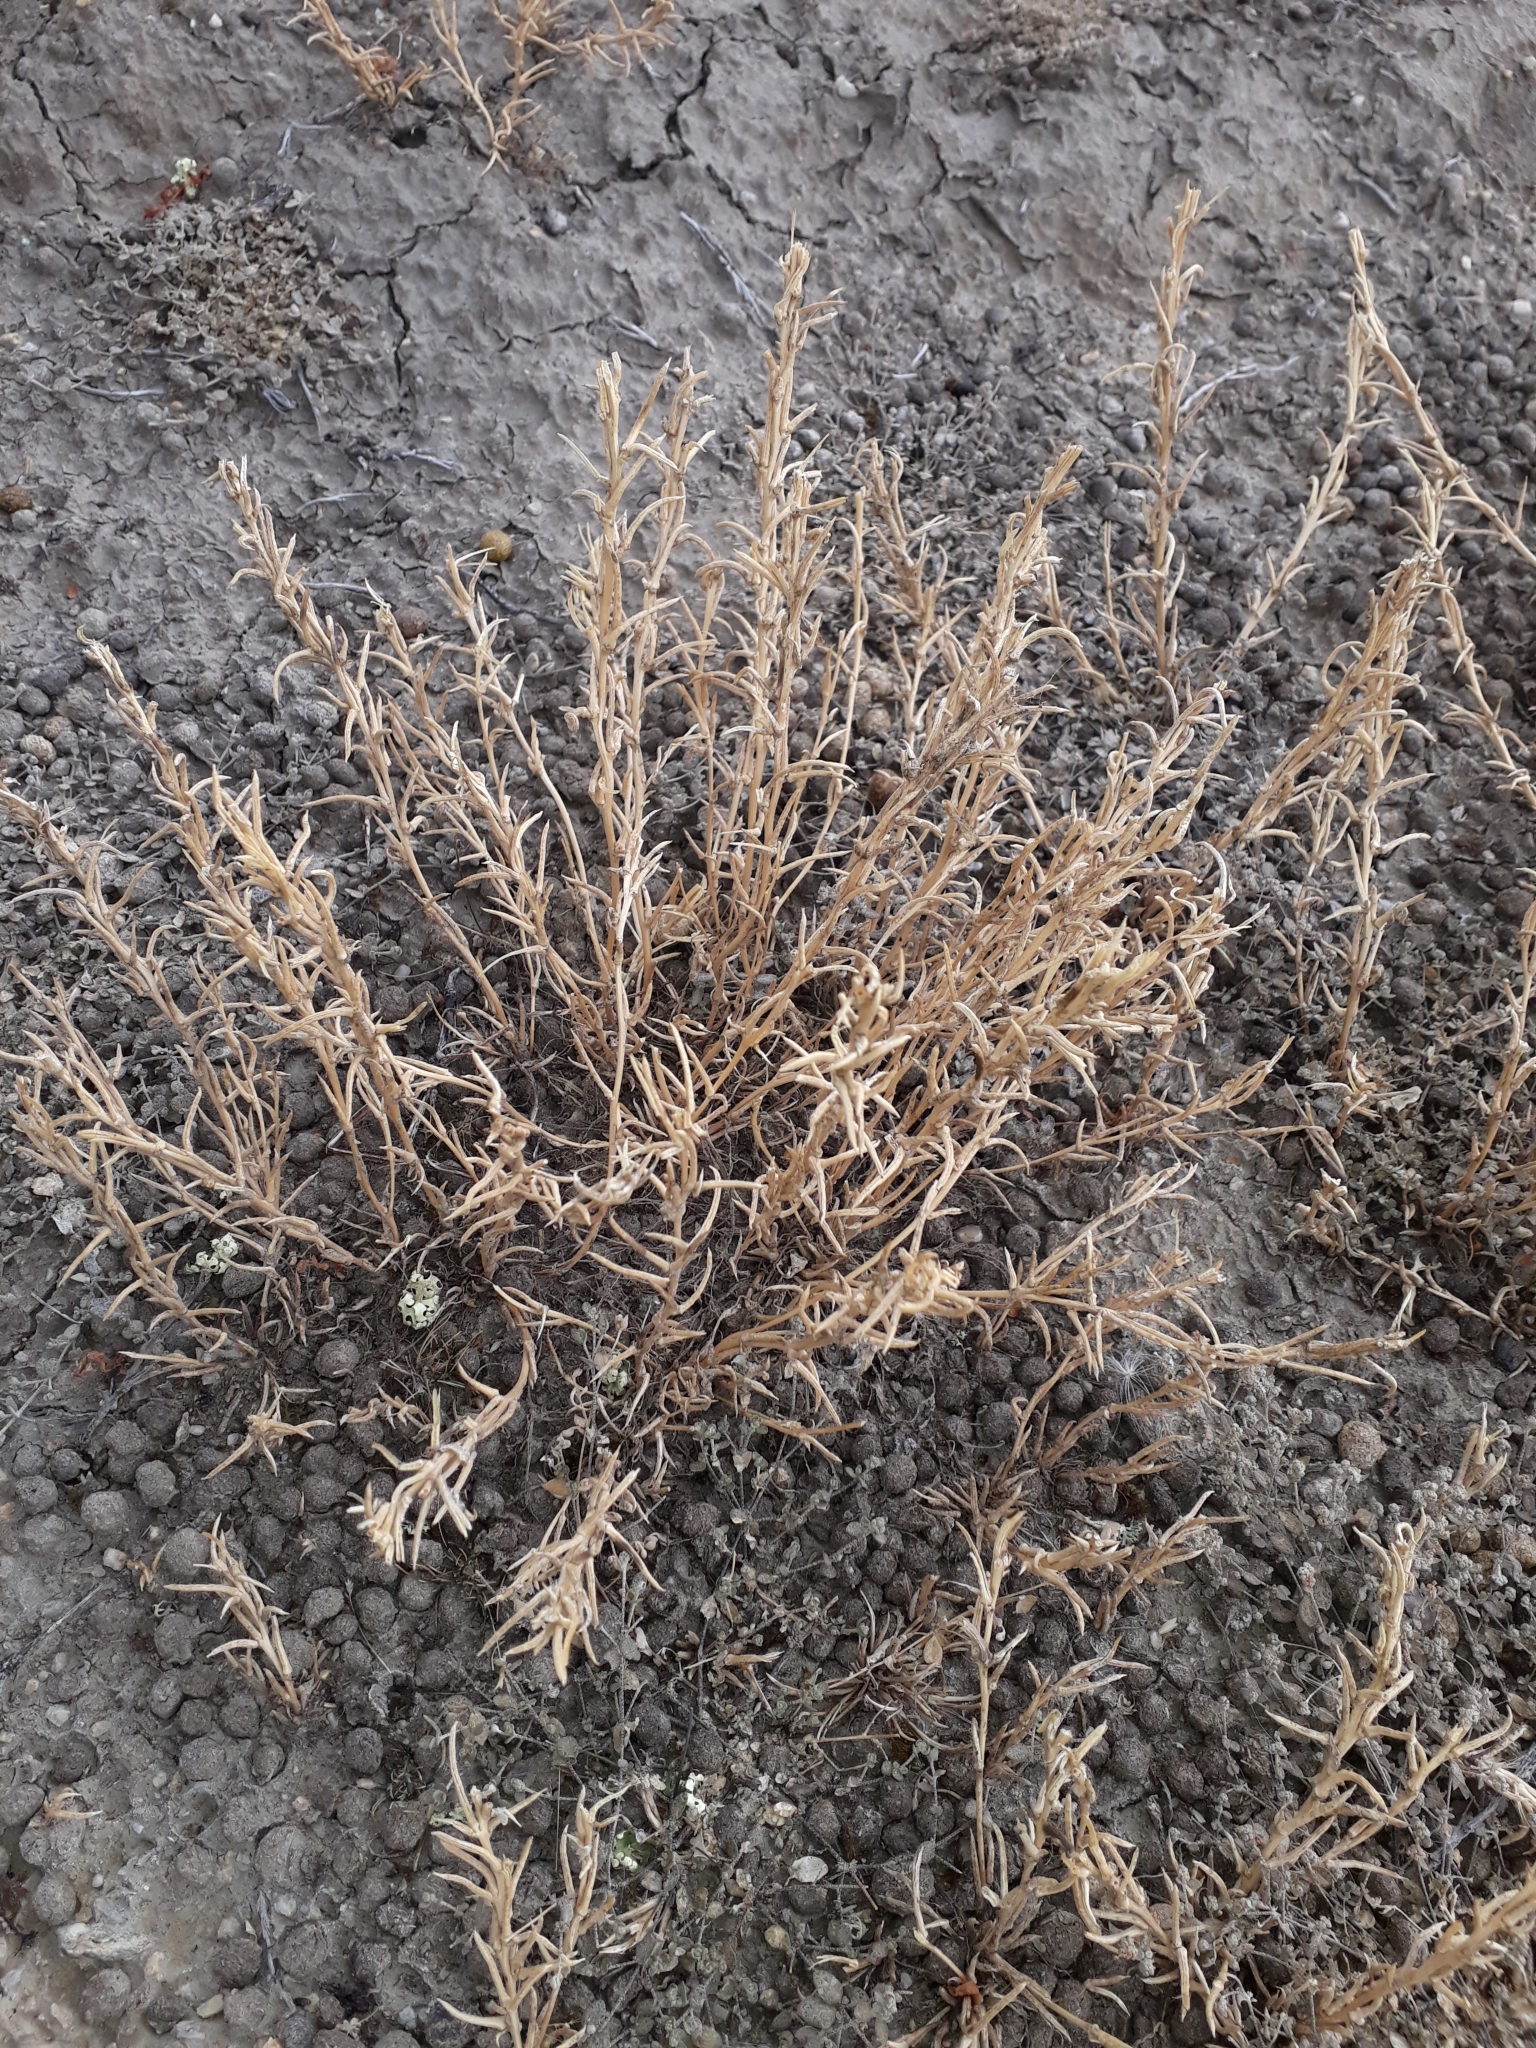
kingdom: Plantae
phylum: Tracheophyta
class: Magnoliopsida
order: Brassicales
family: Resedaceae
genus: Reseda
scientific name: Reseda luteola
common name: Weld
